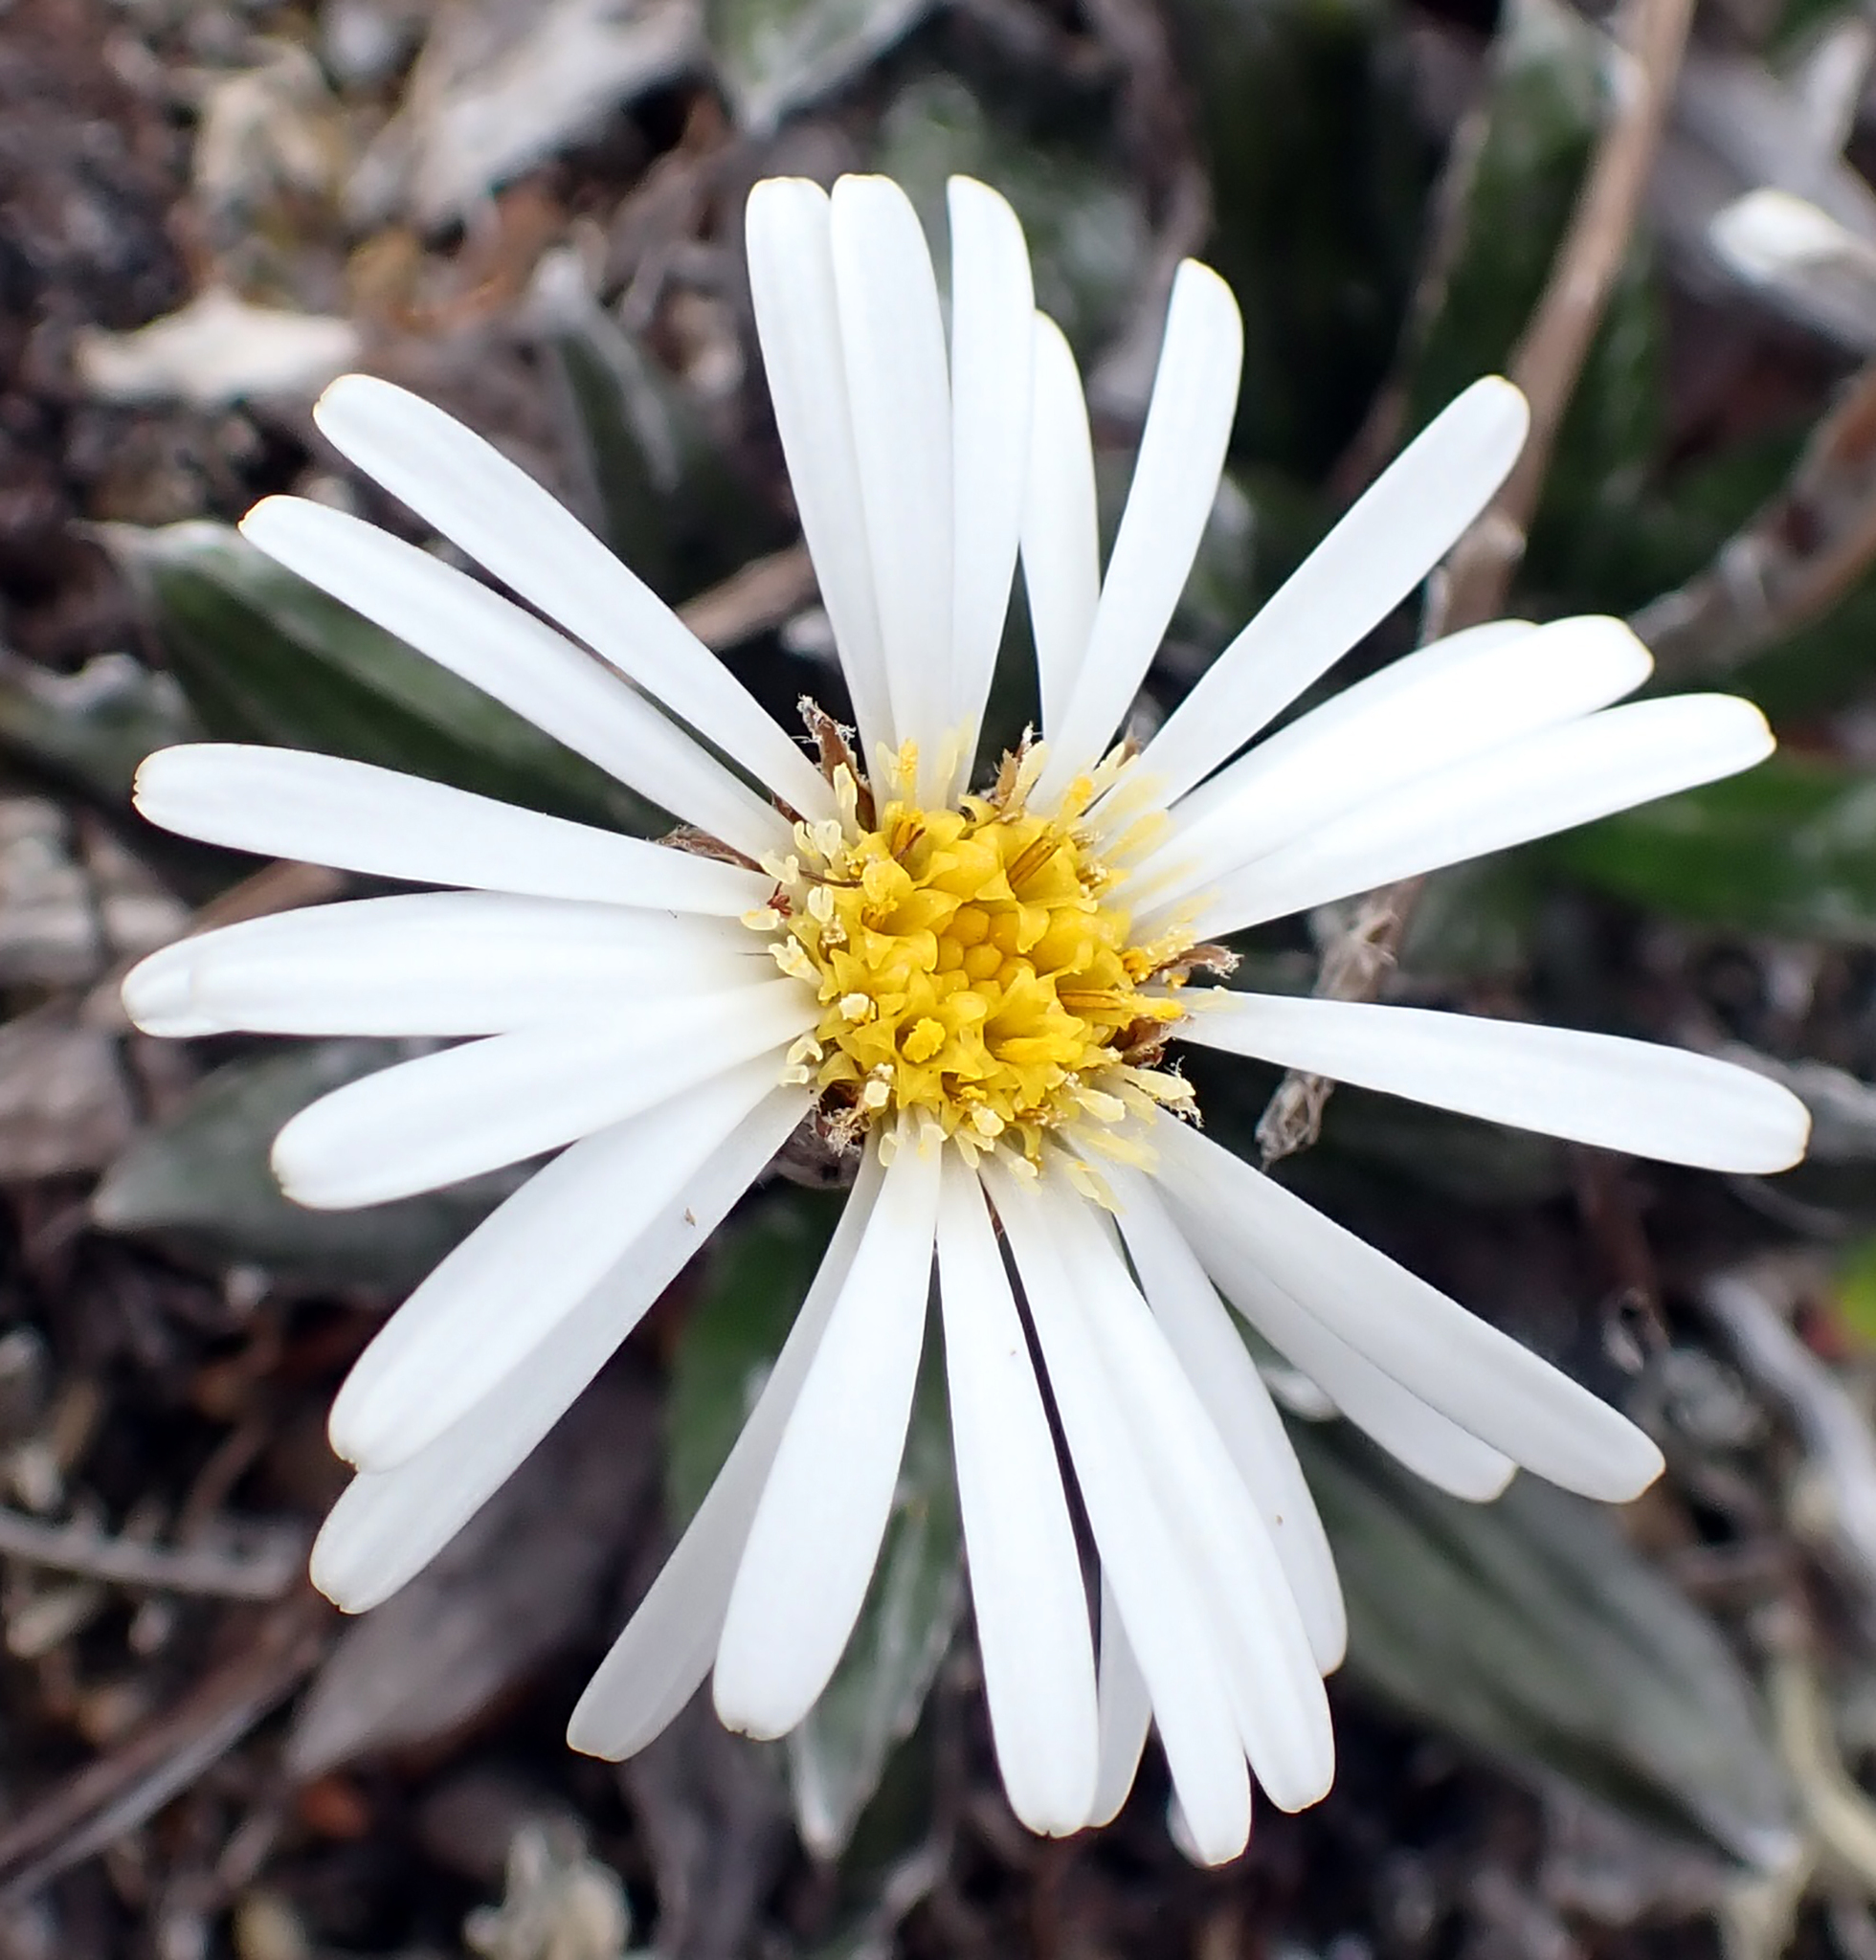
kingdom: Plantae
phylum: Tracheophyta
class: Magnoliopsida
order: Asterales
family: Asteraceae
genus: Celmisia
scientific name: Celmisia dubia
